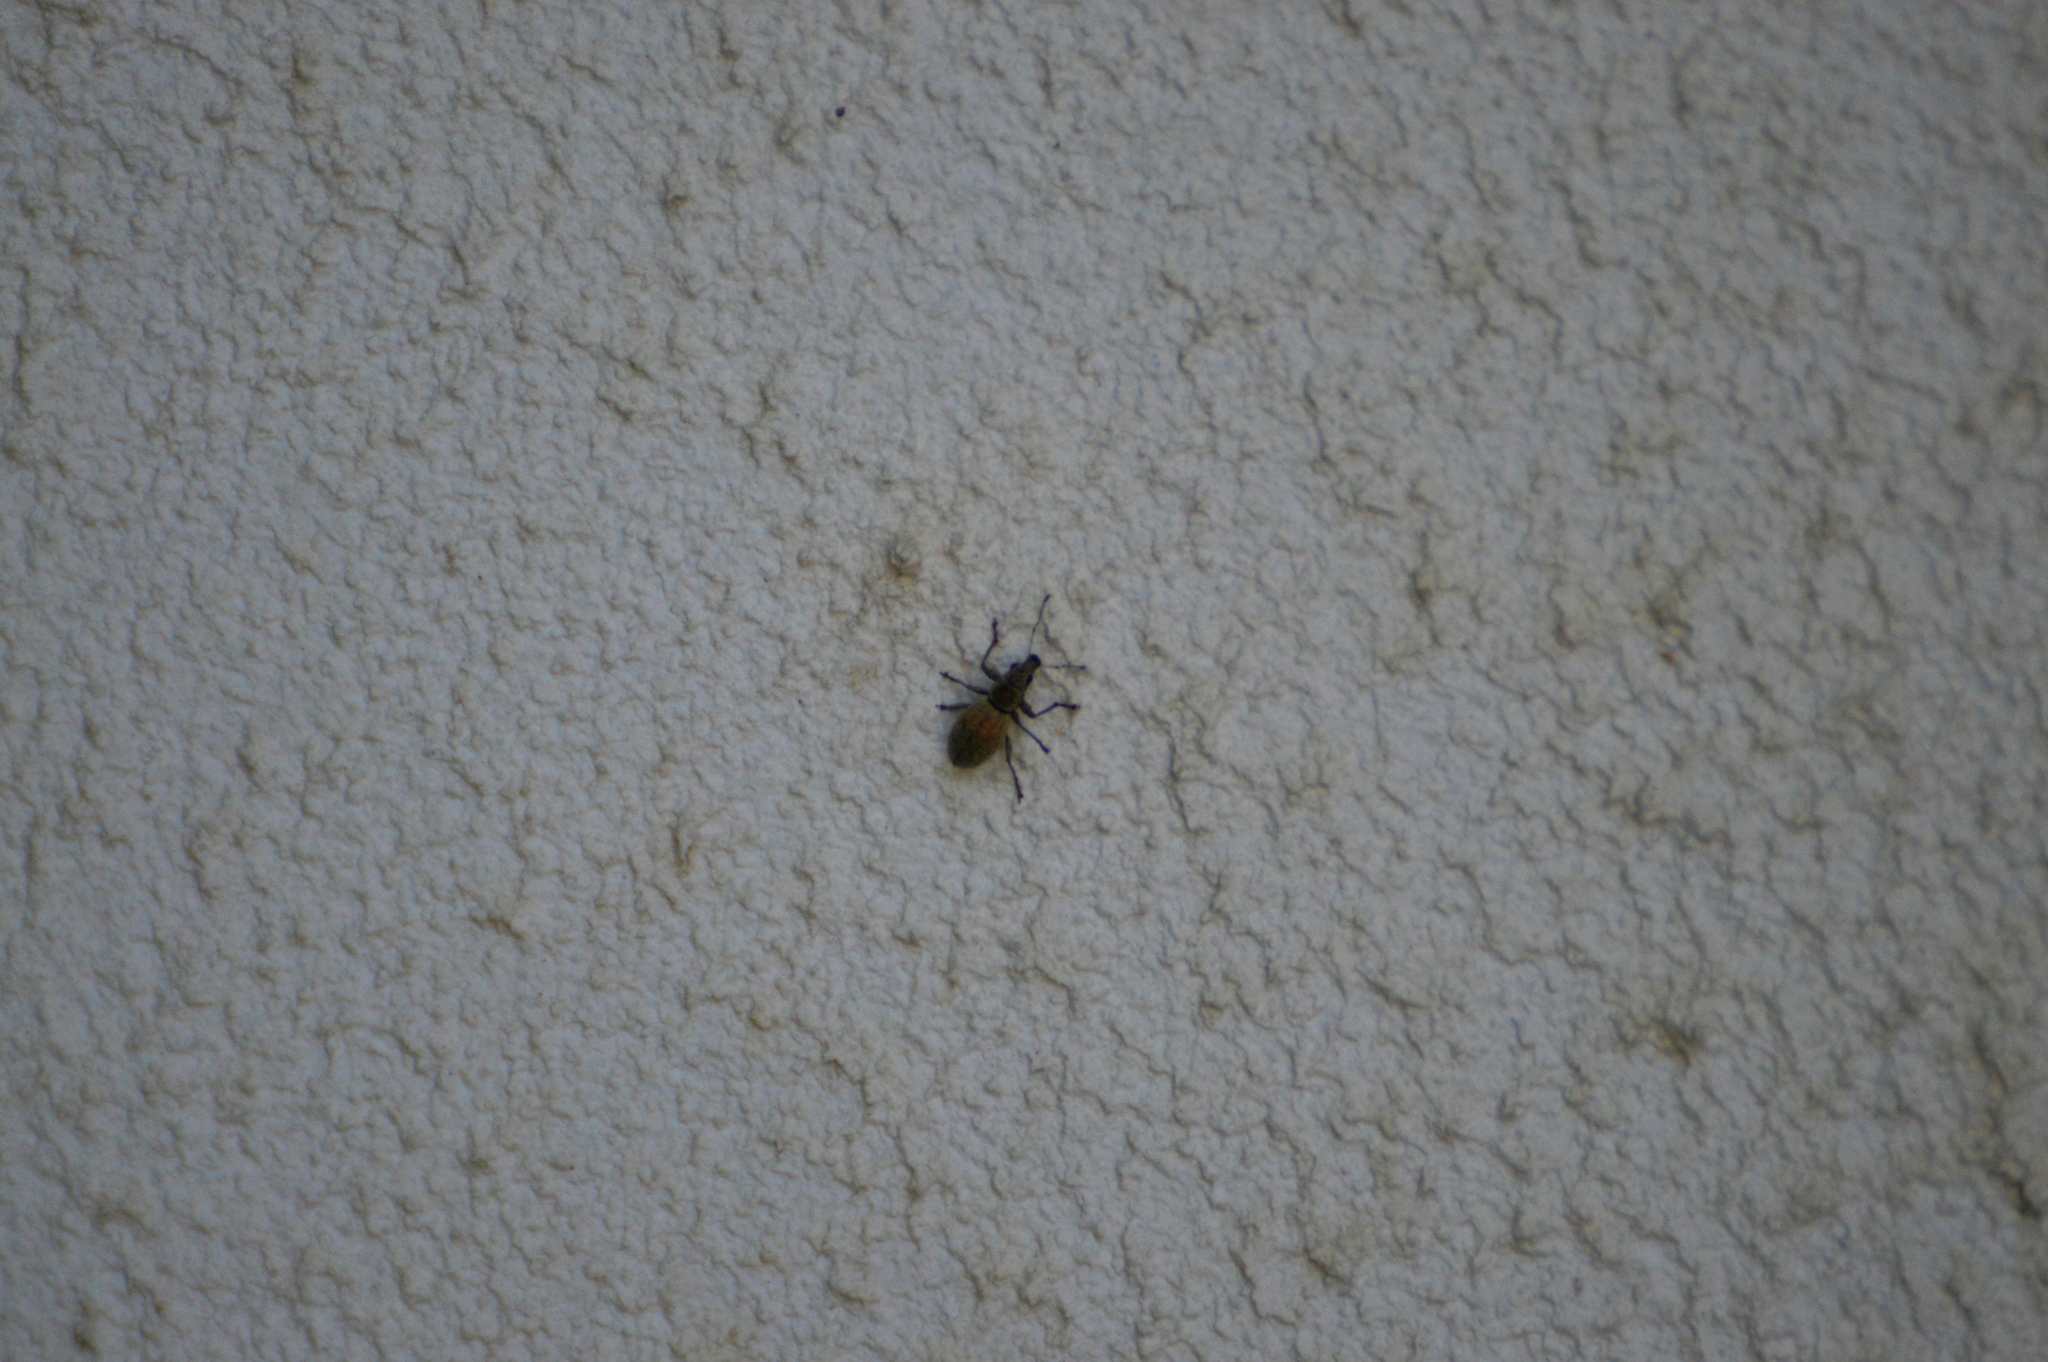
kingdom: Animalia
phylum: Arthropoda
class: Insecta
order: Coleoptera
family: Curculionidae
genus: Eusomus
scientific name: Eusomus ovulum
